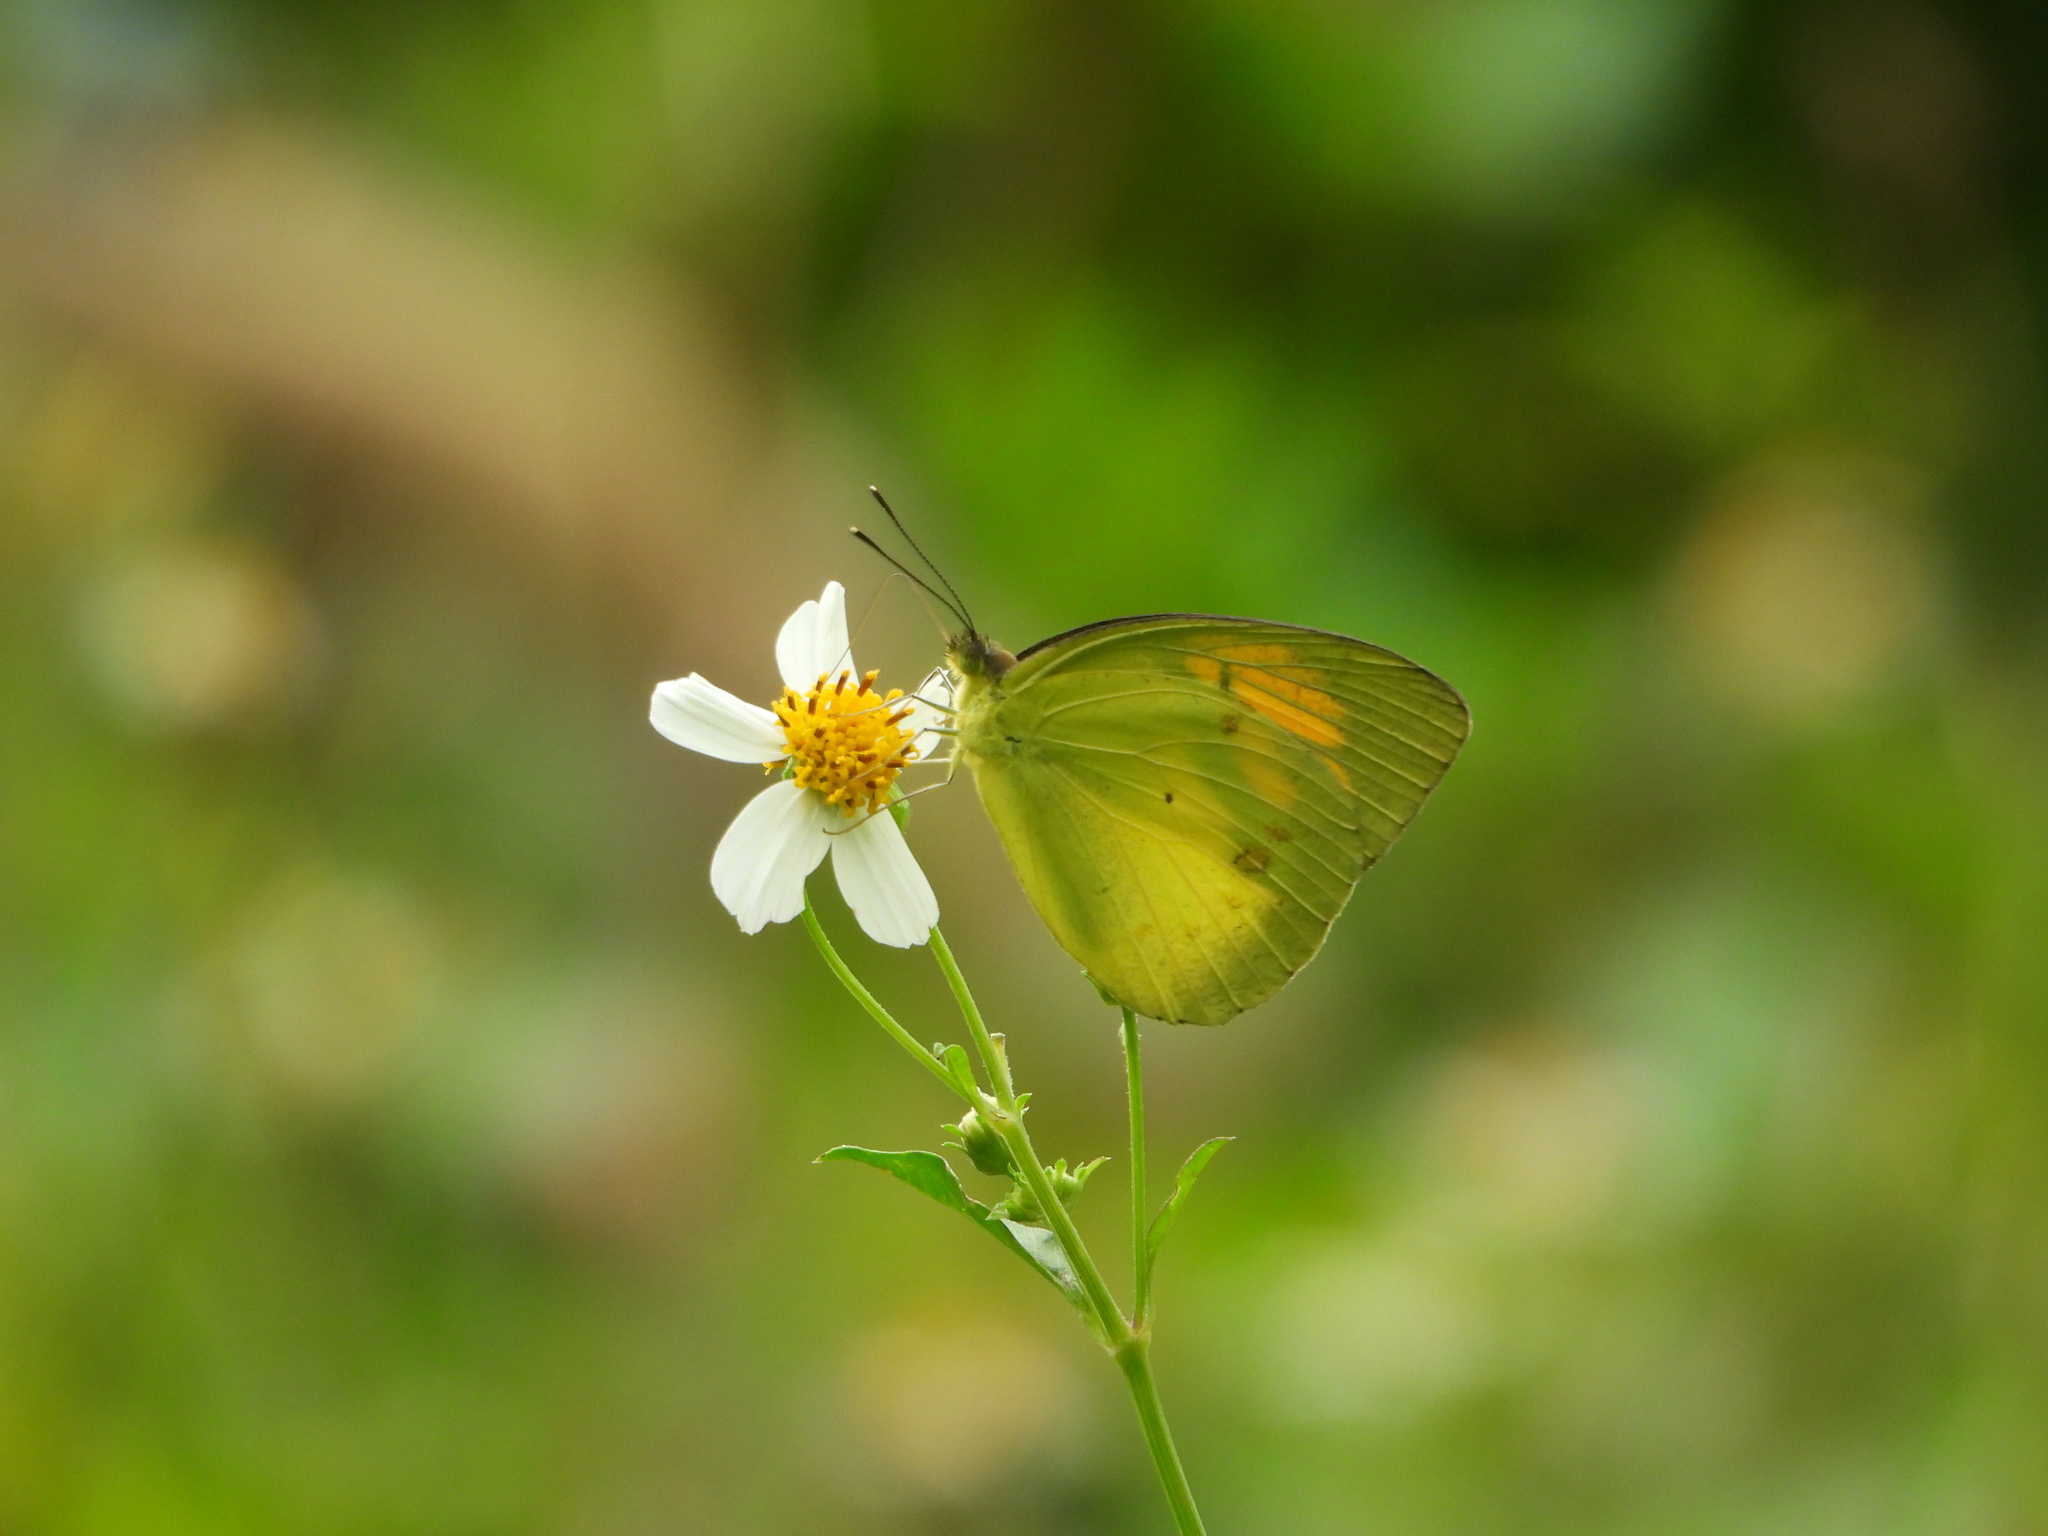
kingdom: Animalia
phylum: Arthropoda
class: Insecta
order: Lepidoptera
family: Pieridae
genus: Ixias
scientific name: Ixias pyrene
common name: Yellow orange tip
